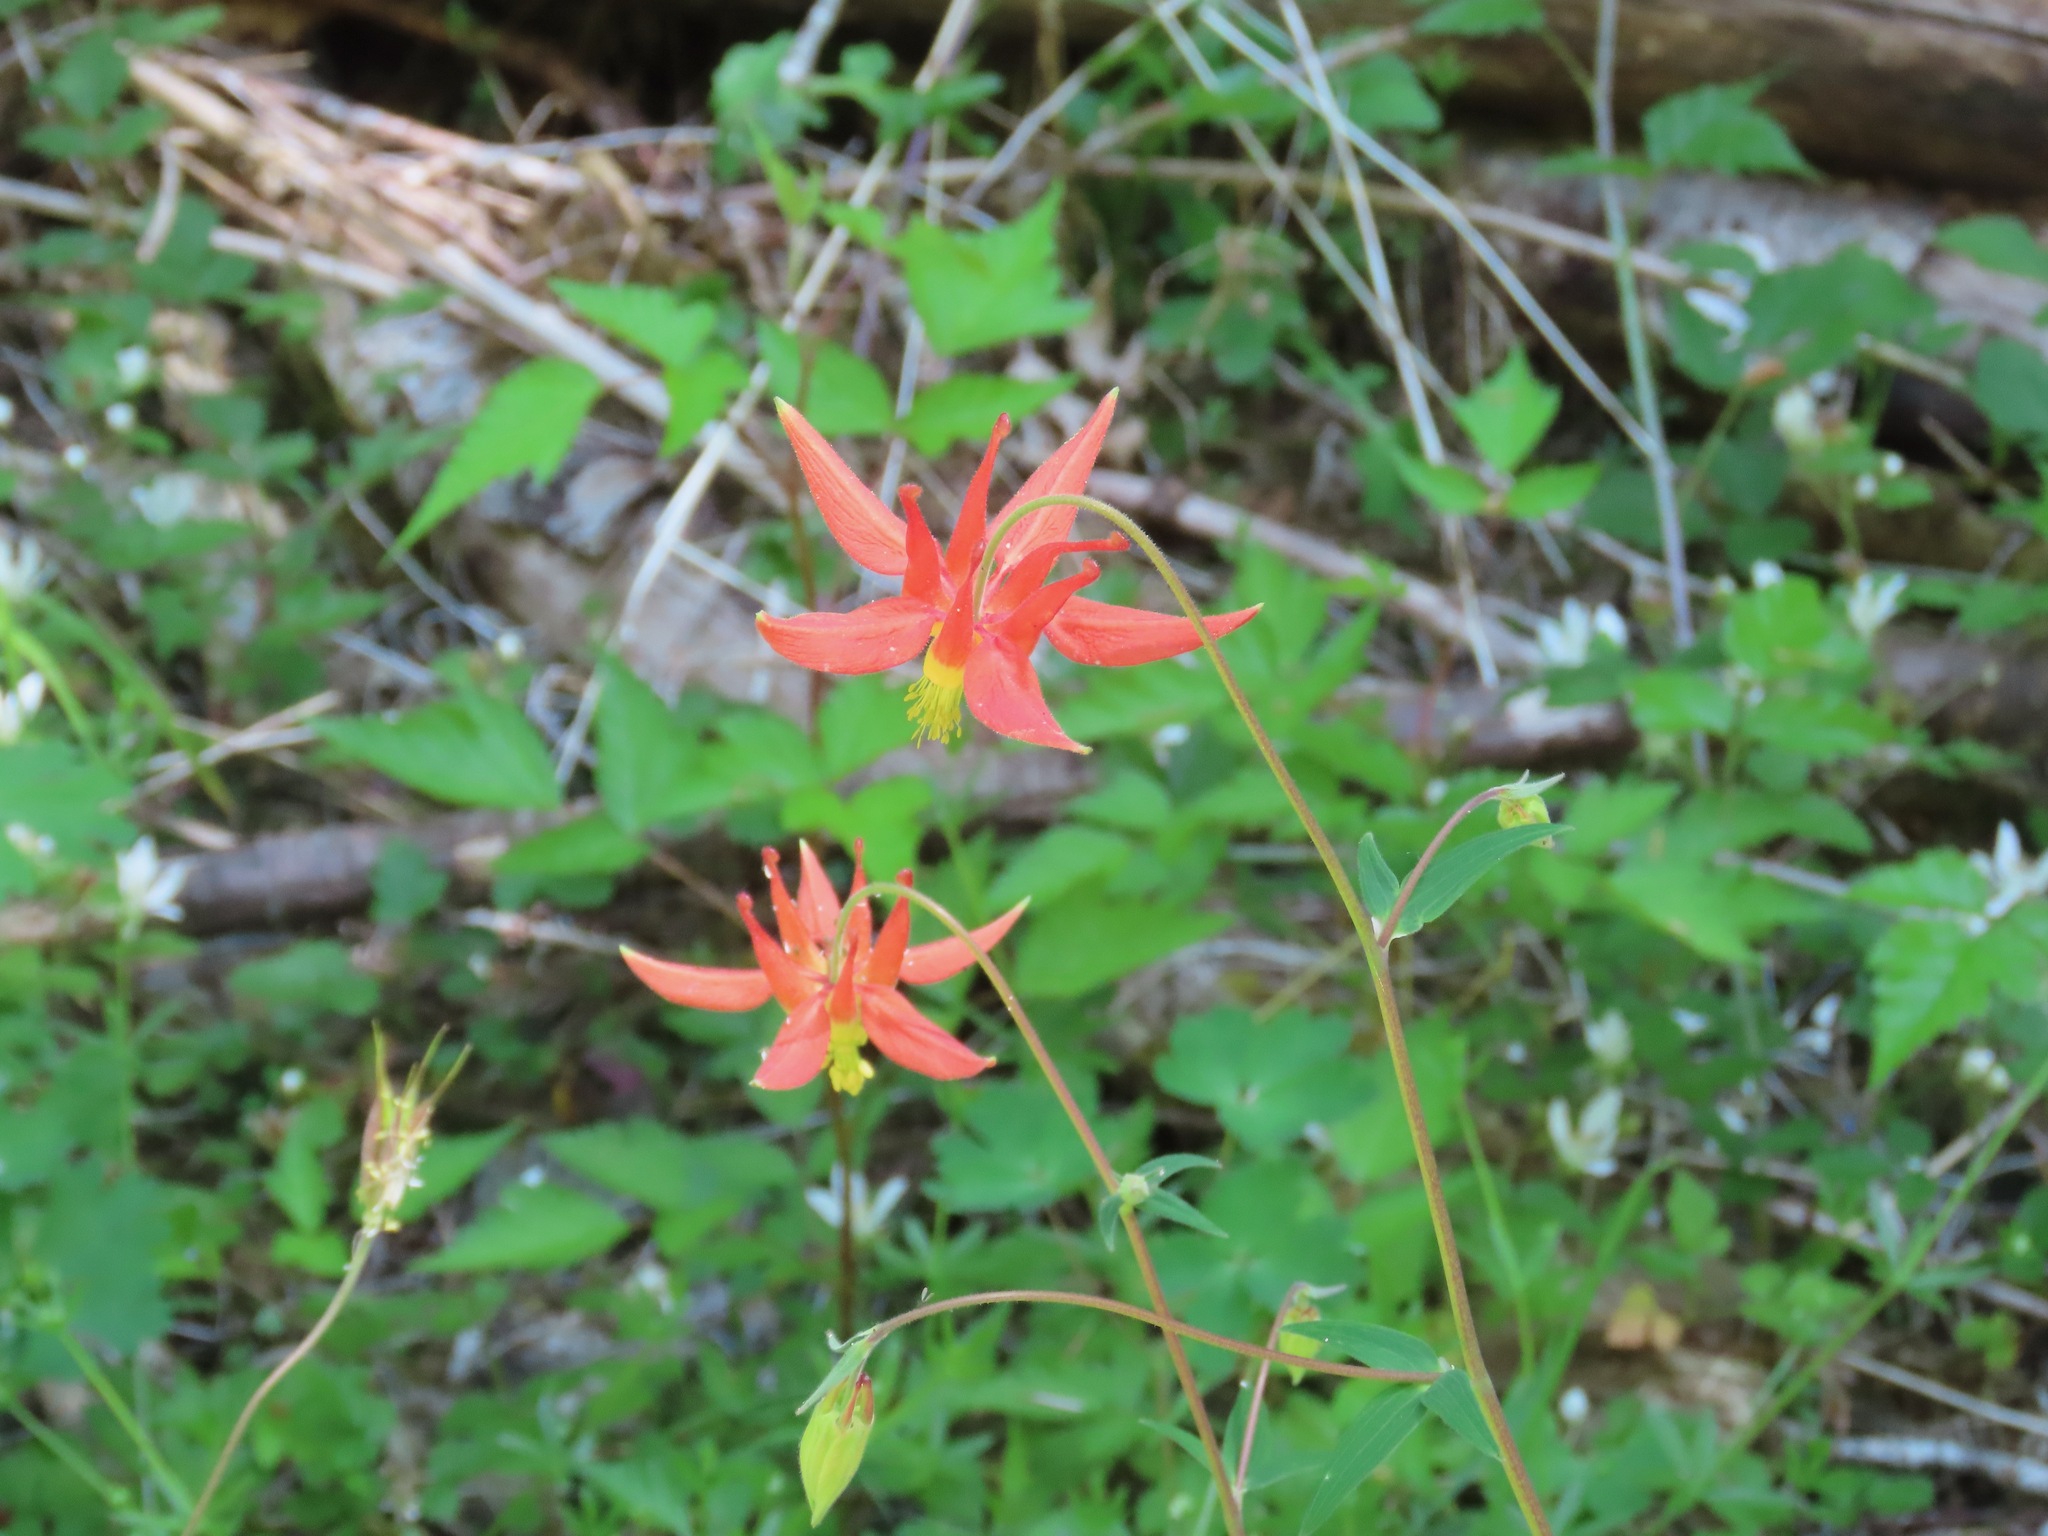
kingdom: Plantae
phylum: Tracheophyta
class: Magnoliopsida
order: Ranunculales
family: Ranunculaceae
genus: Aquilegia
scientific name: Aquilegia formosa
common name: Sitka columbine
